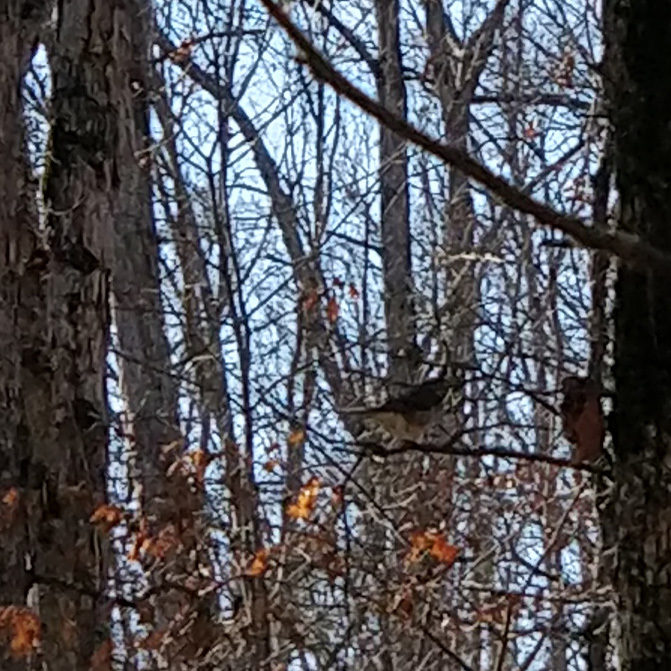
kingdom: Animalia
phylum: Chordata
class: Aves
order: Passeriformes
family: Turdidae
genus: Catharus
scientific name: Catharus guttatus
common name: Hermit thrush
